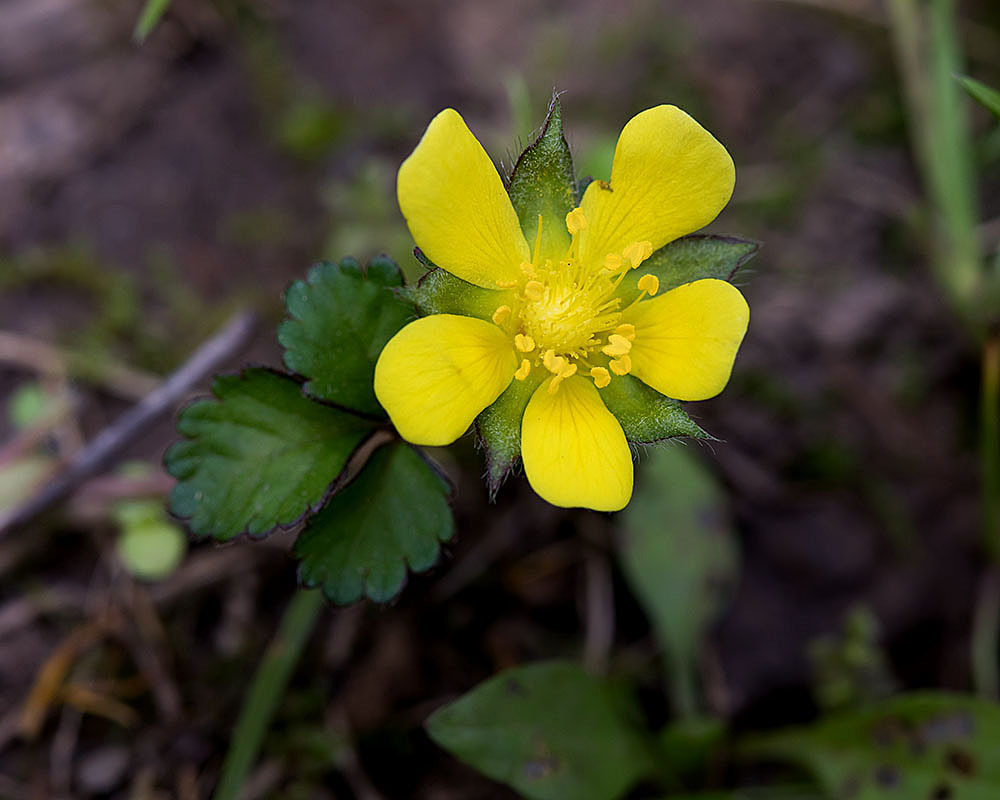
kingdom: Plantae
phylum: Tracheophyta
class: Magnoliopsida
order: Rosales
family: Rosaceae
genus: Potentilla
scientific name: Potentilla indica
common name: Yellow-flowered strawberry
